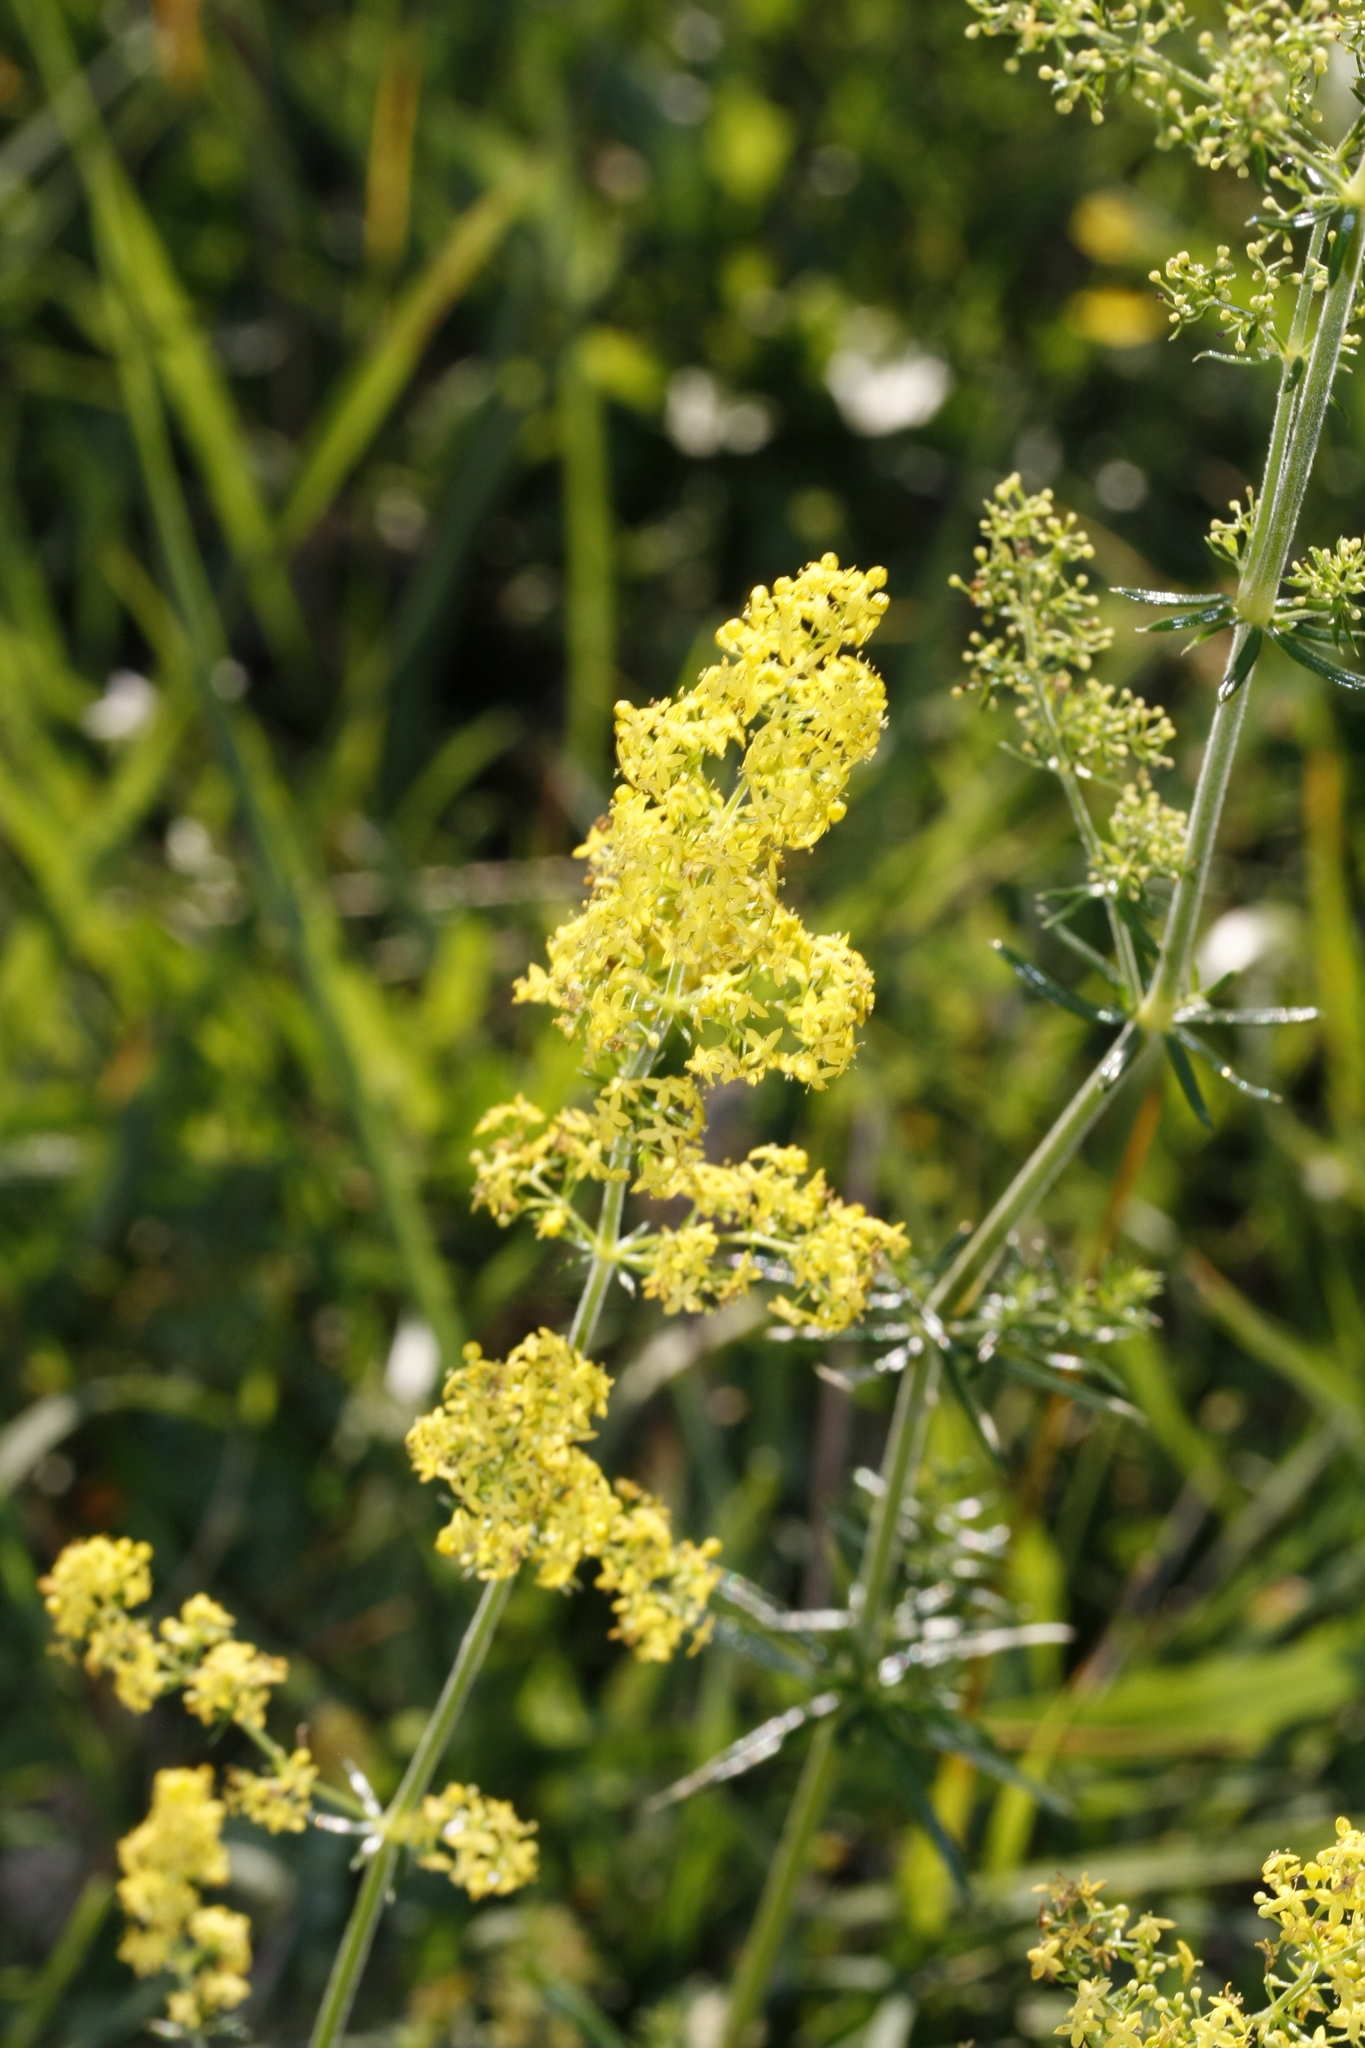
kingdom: Plantae
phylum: Tracheophyta
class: Magnoliopsida
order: Gentianales
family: Rubiaceae
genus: Galium
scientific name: Galium verum
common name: Lady's bedstraw
